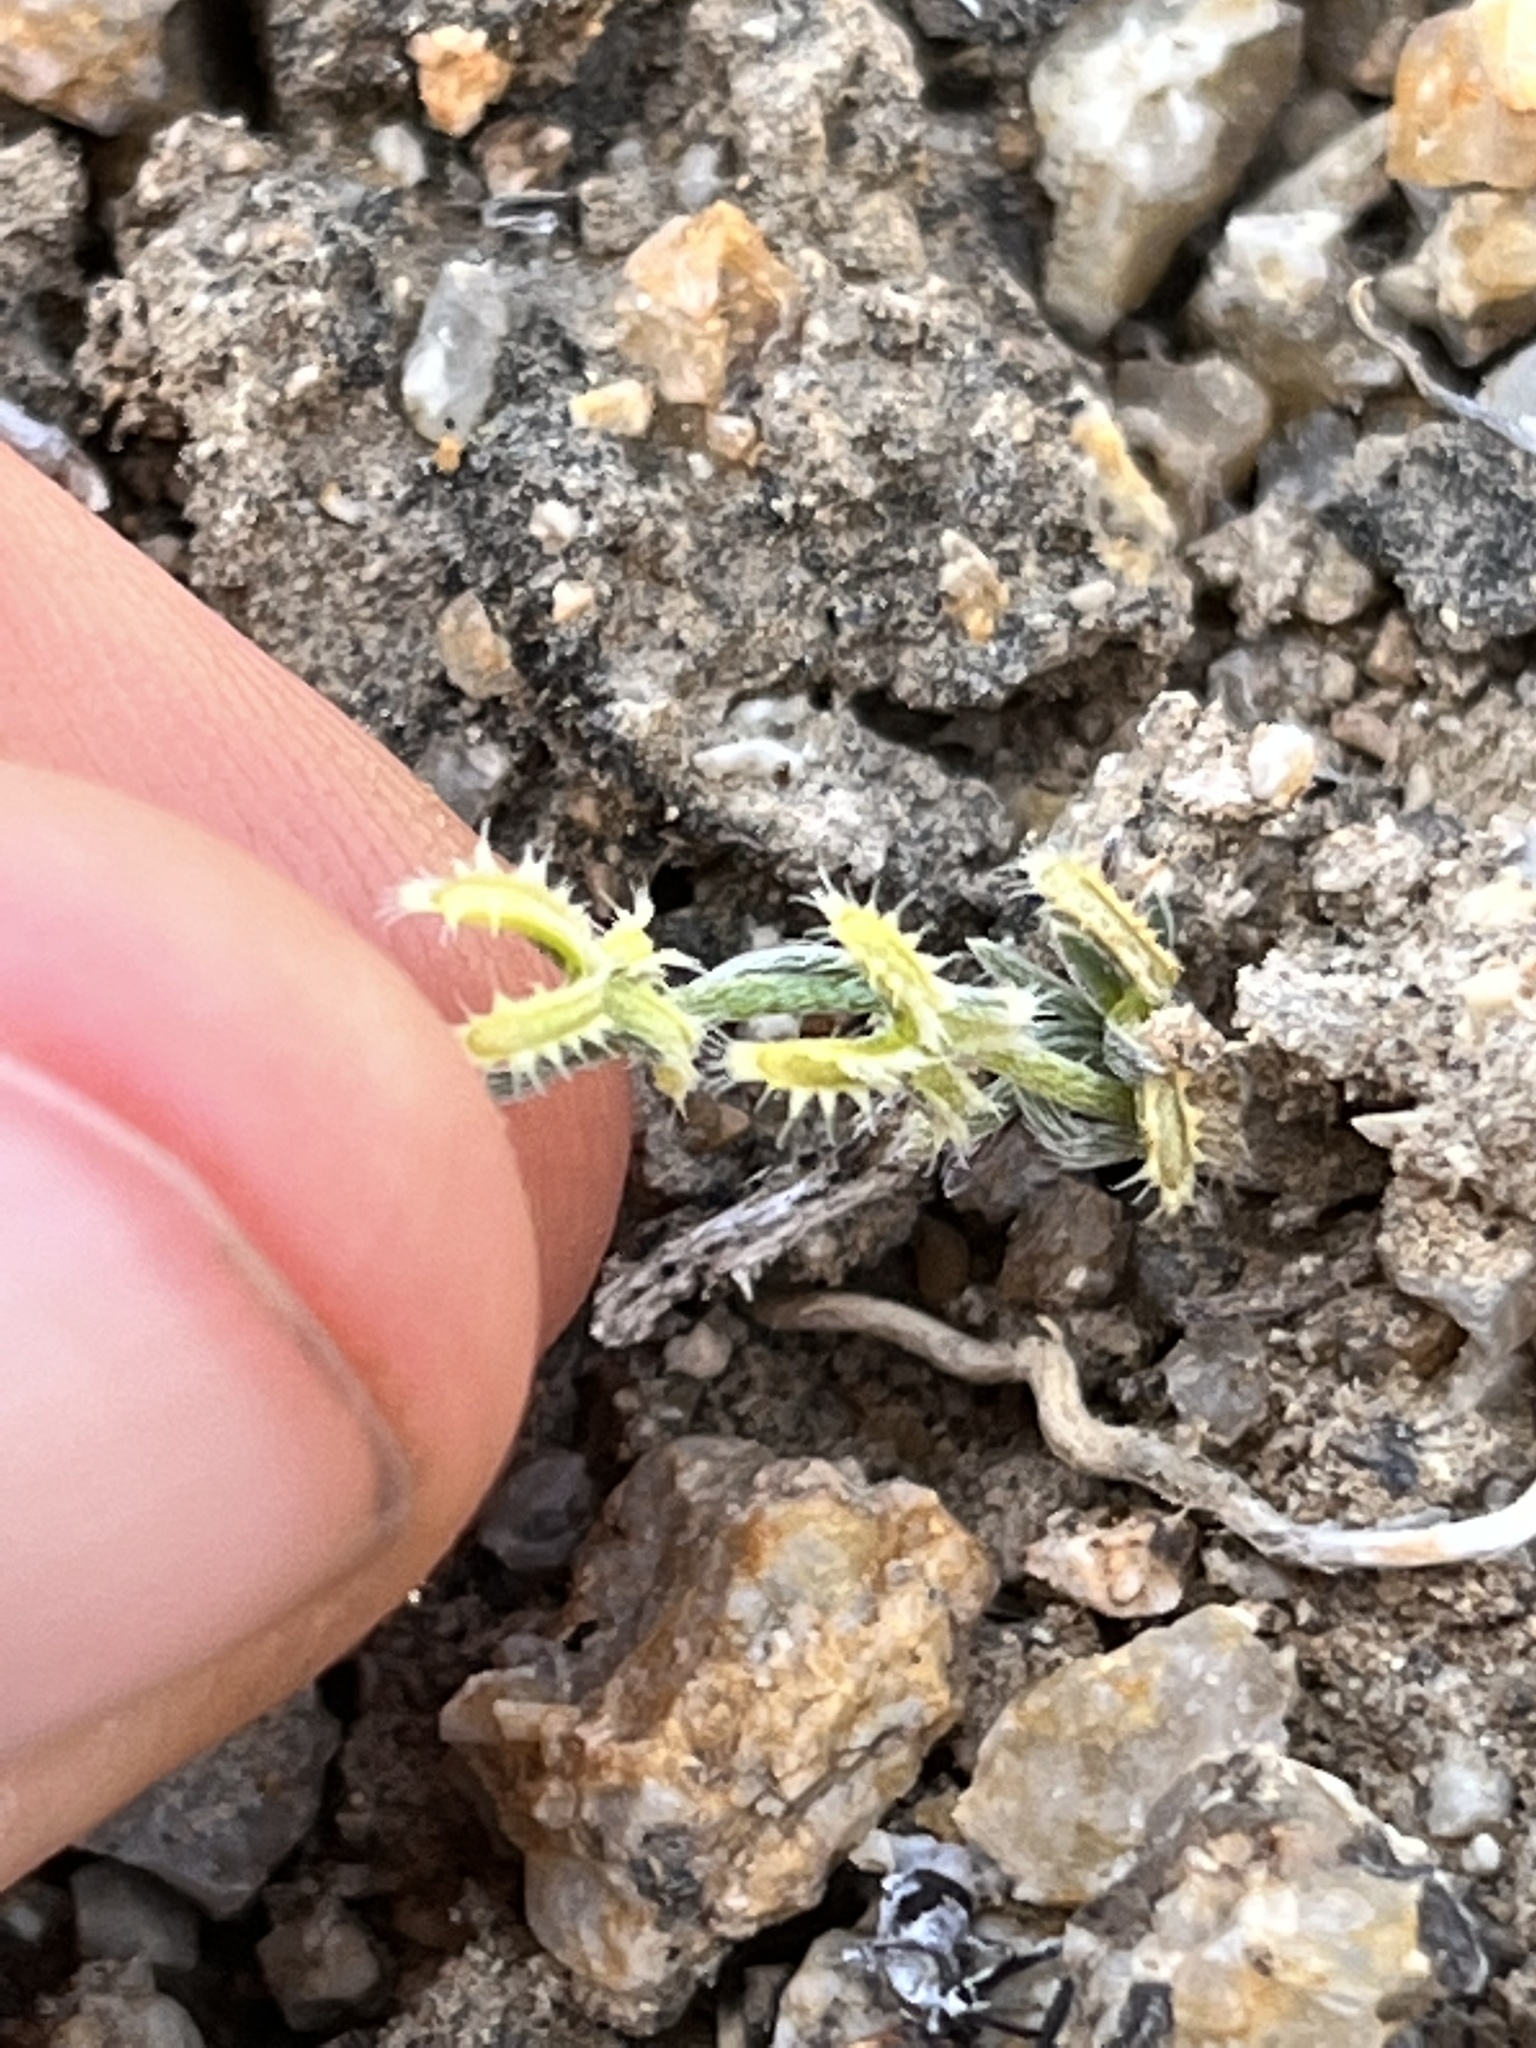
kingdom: Plantae
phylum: Tracheophyta
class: Magnoliopsida
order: Boraginales
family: Boraginaceae
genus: Pectocarya
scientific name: Pectocarya linearis
